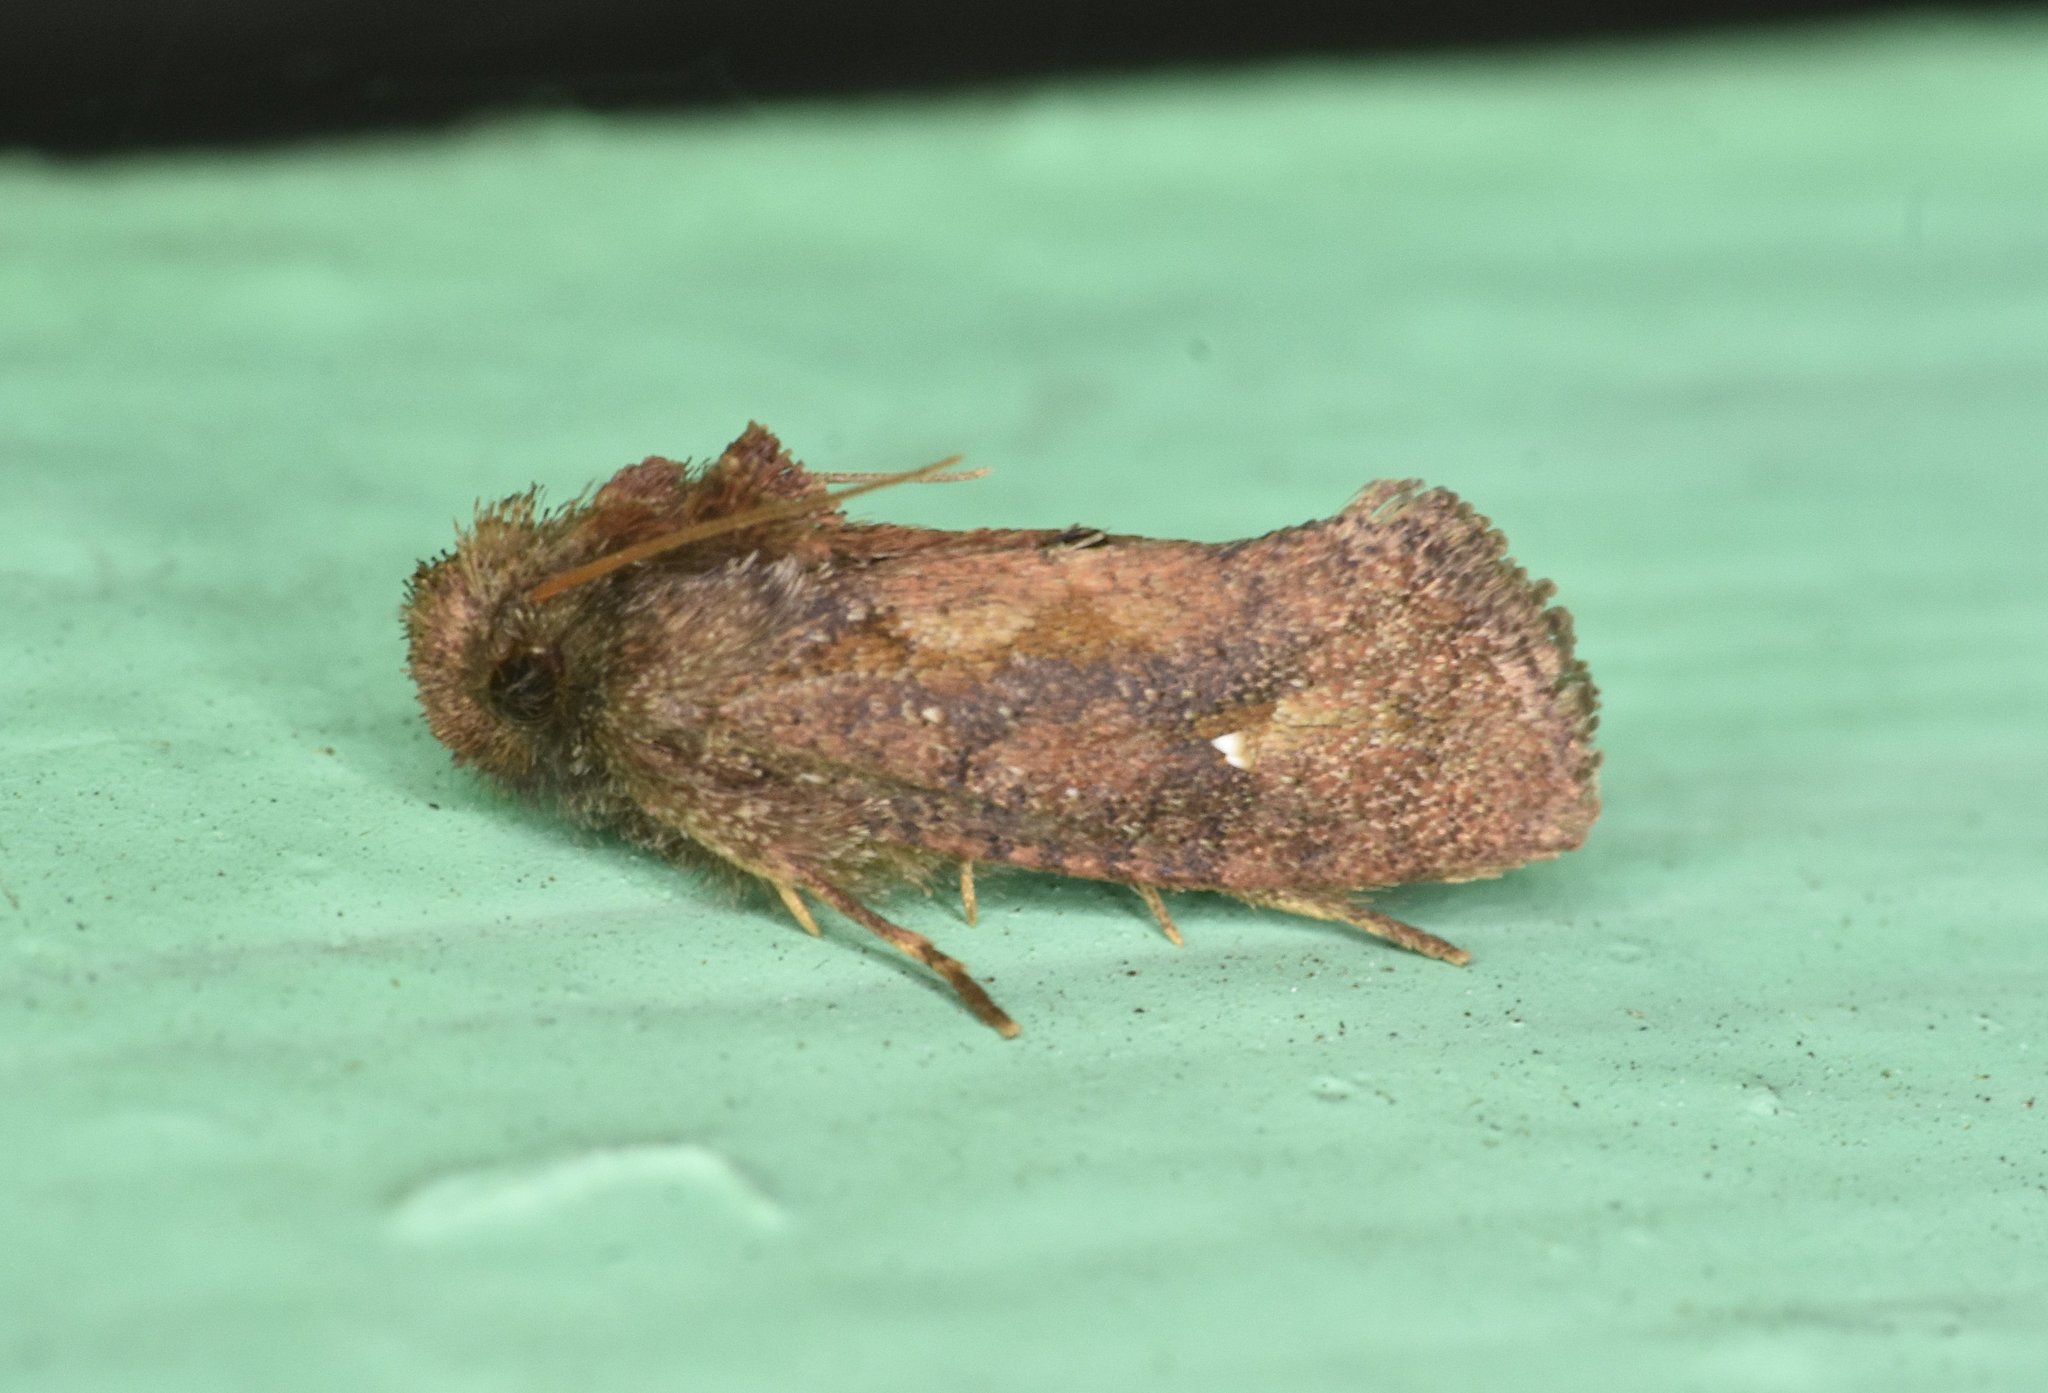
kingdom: Animalia
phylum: Arthropoda
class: Insecta
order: Lepidoptera
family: Tineidae
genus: Acrolophus
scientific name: Acrolophus walsinghami
